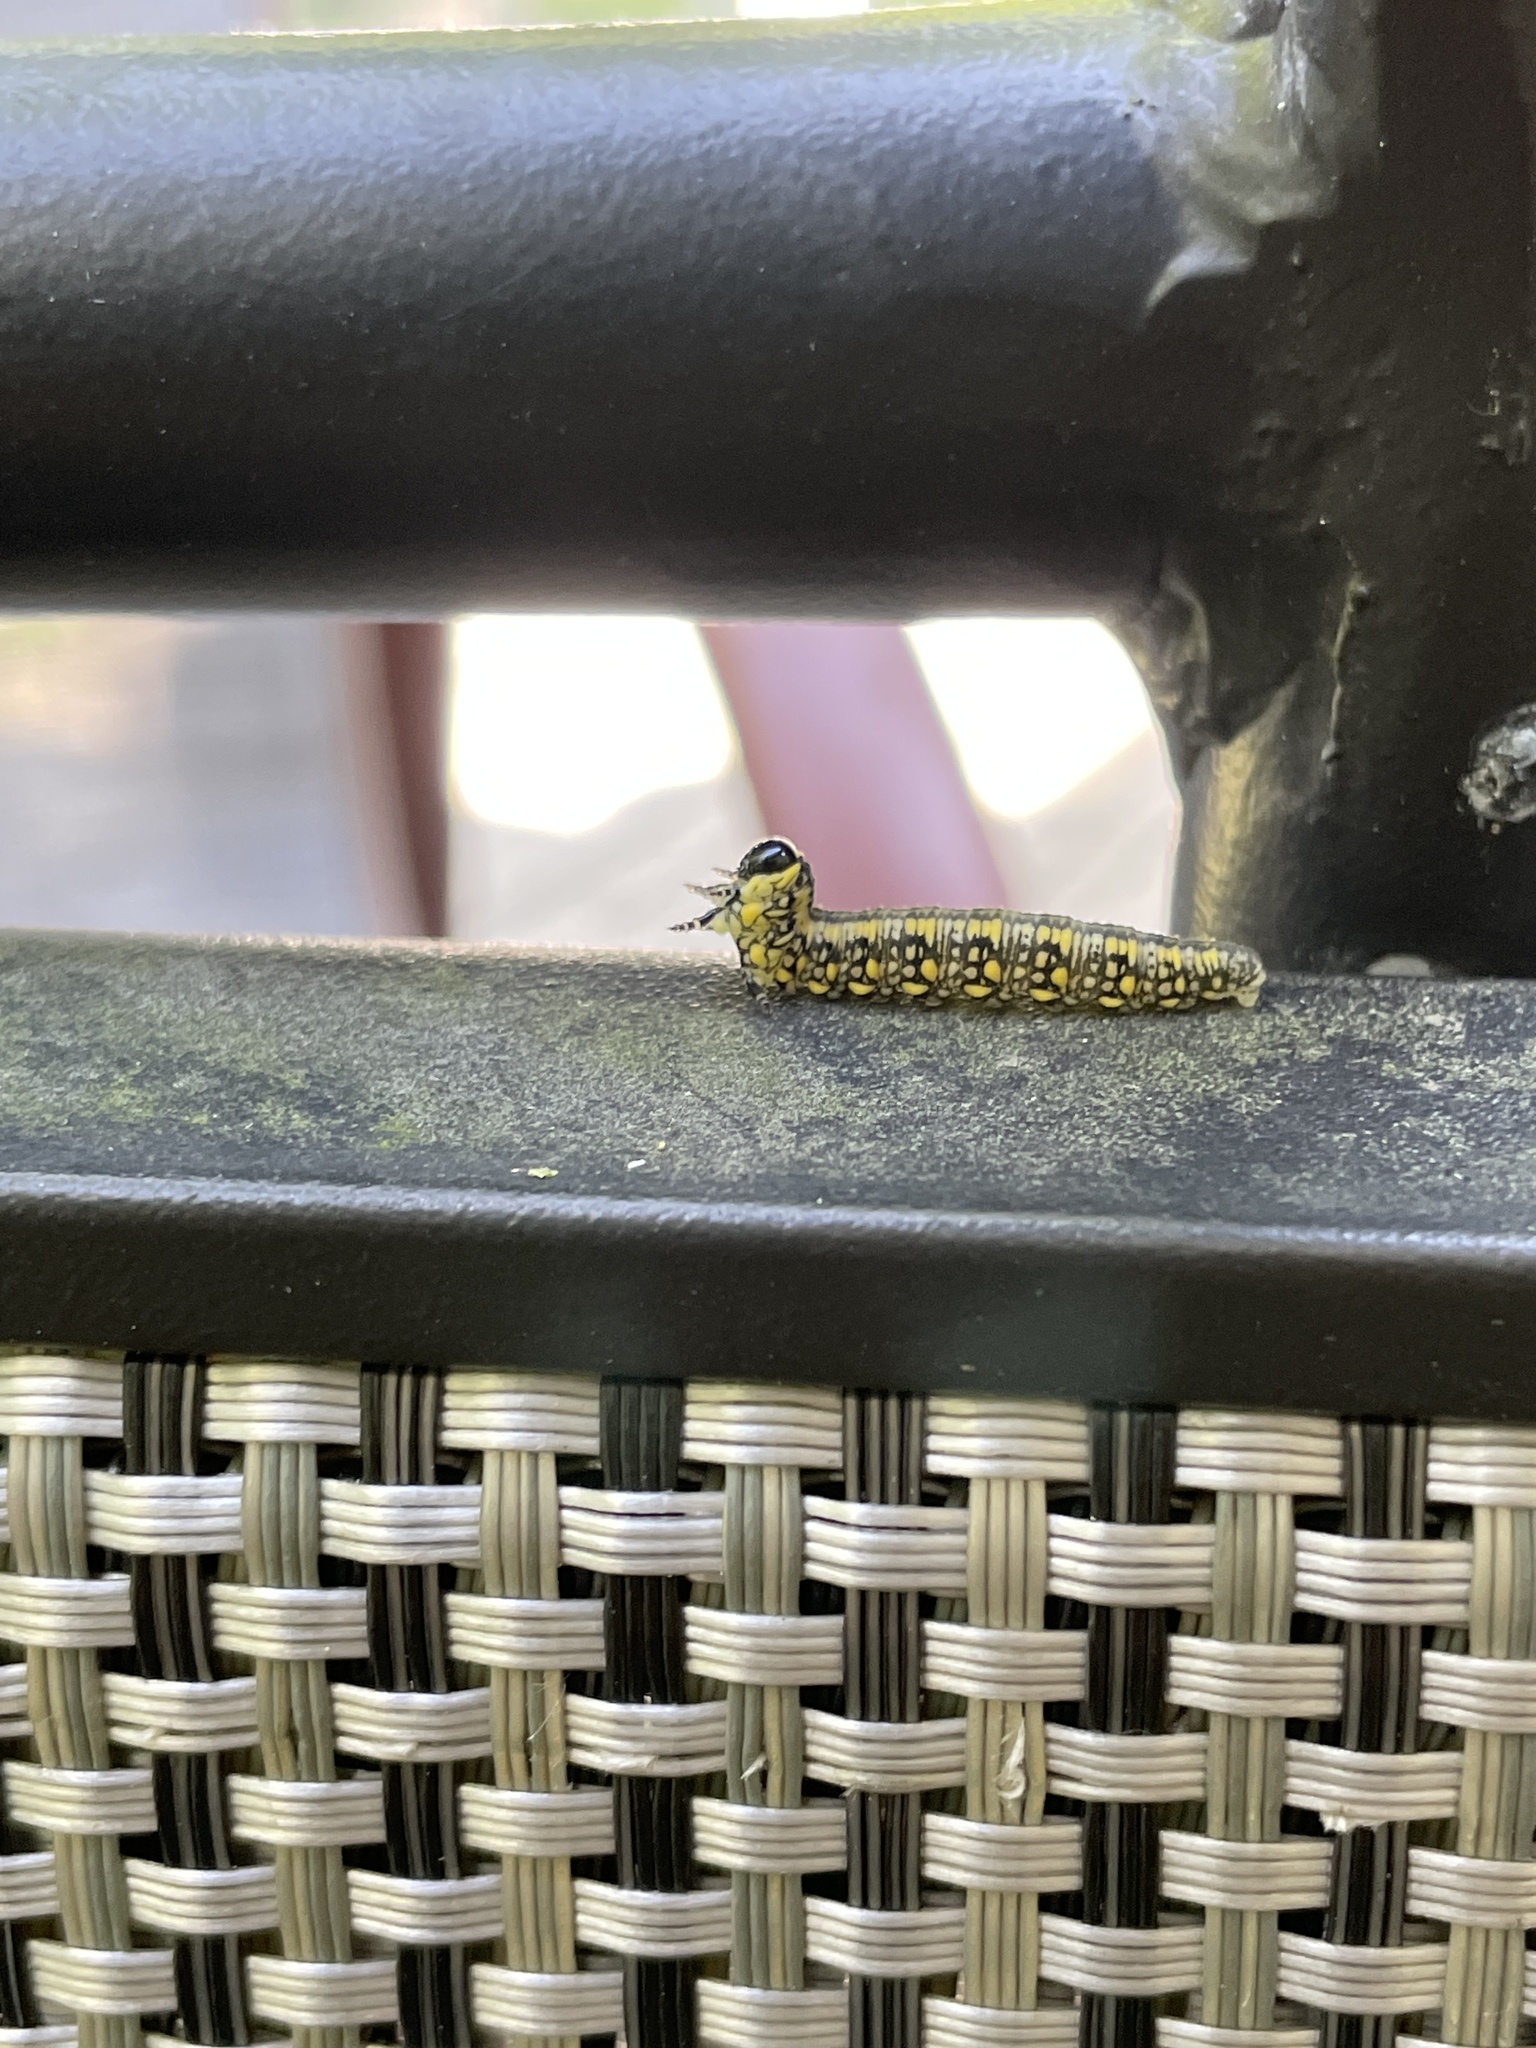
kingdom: Animalia
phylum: Arthropoda
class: Insecta
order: Hymenoptera
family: Diprionidae
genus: Diprion
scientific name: Diprion similis
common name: Pine sawfly
